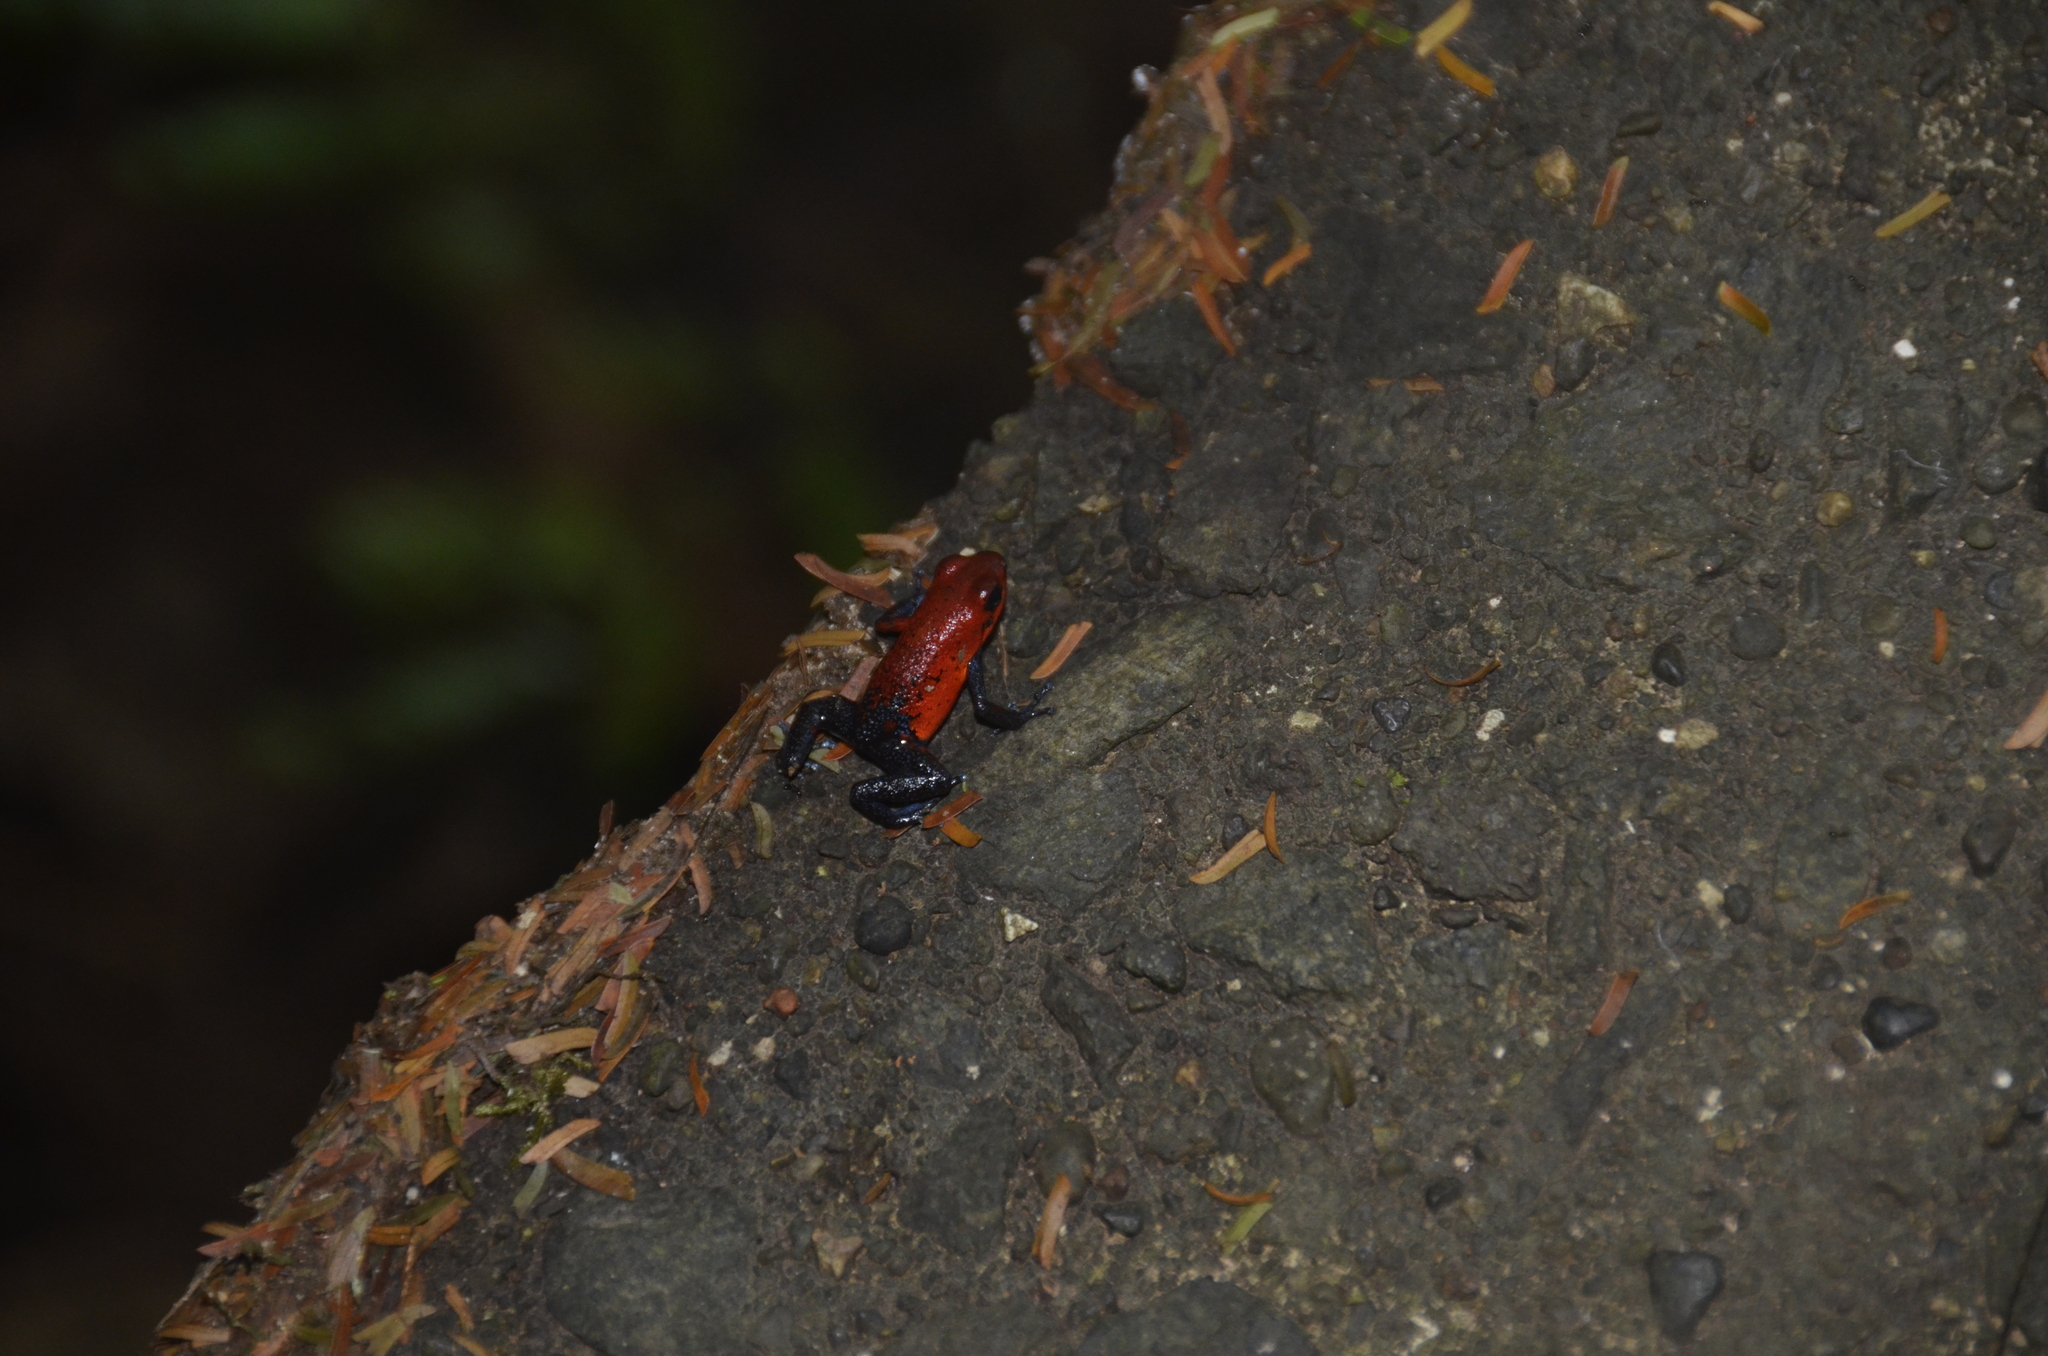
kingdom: Animalia
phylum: Chordata
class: Amphibia
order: Anura
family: Dendrobatidae
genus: Oophaga
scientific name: Oophaga pumilio
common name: Flaming poison frog
